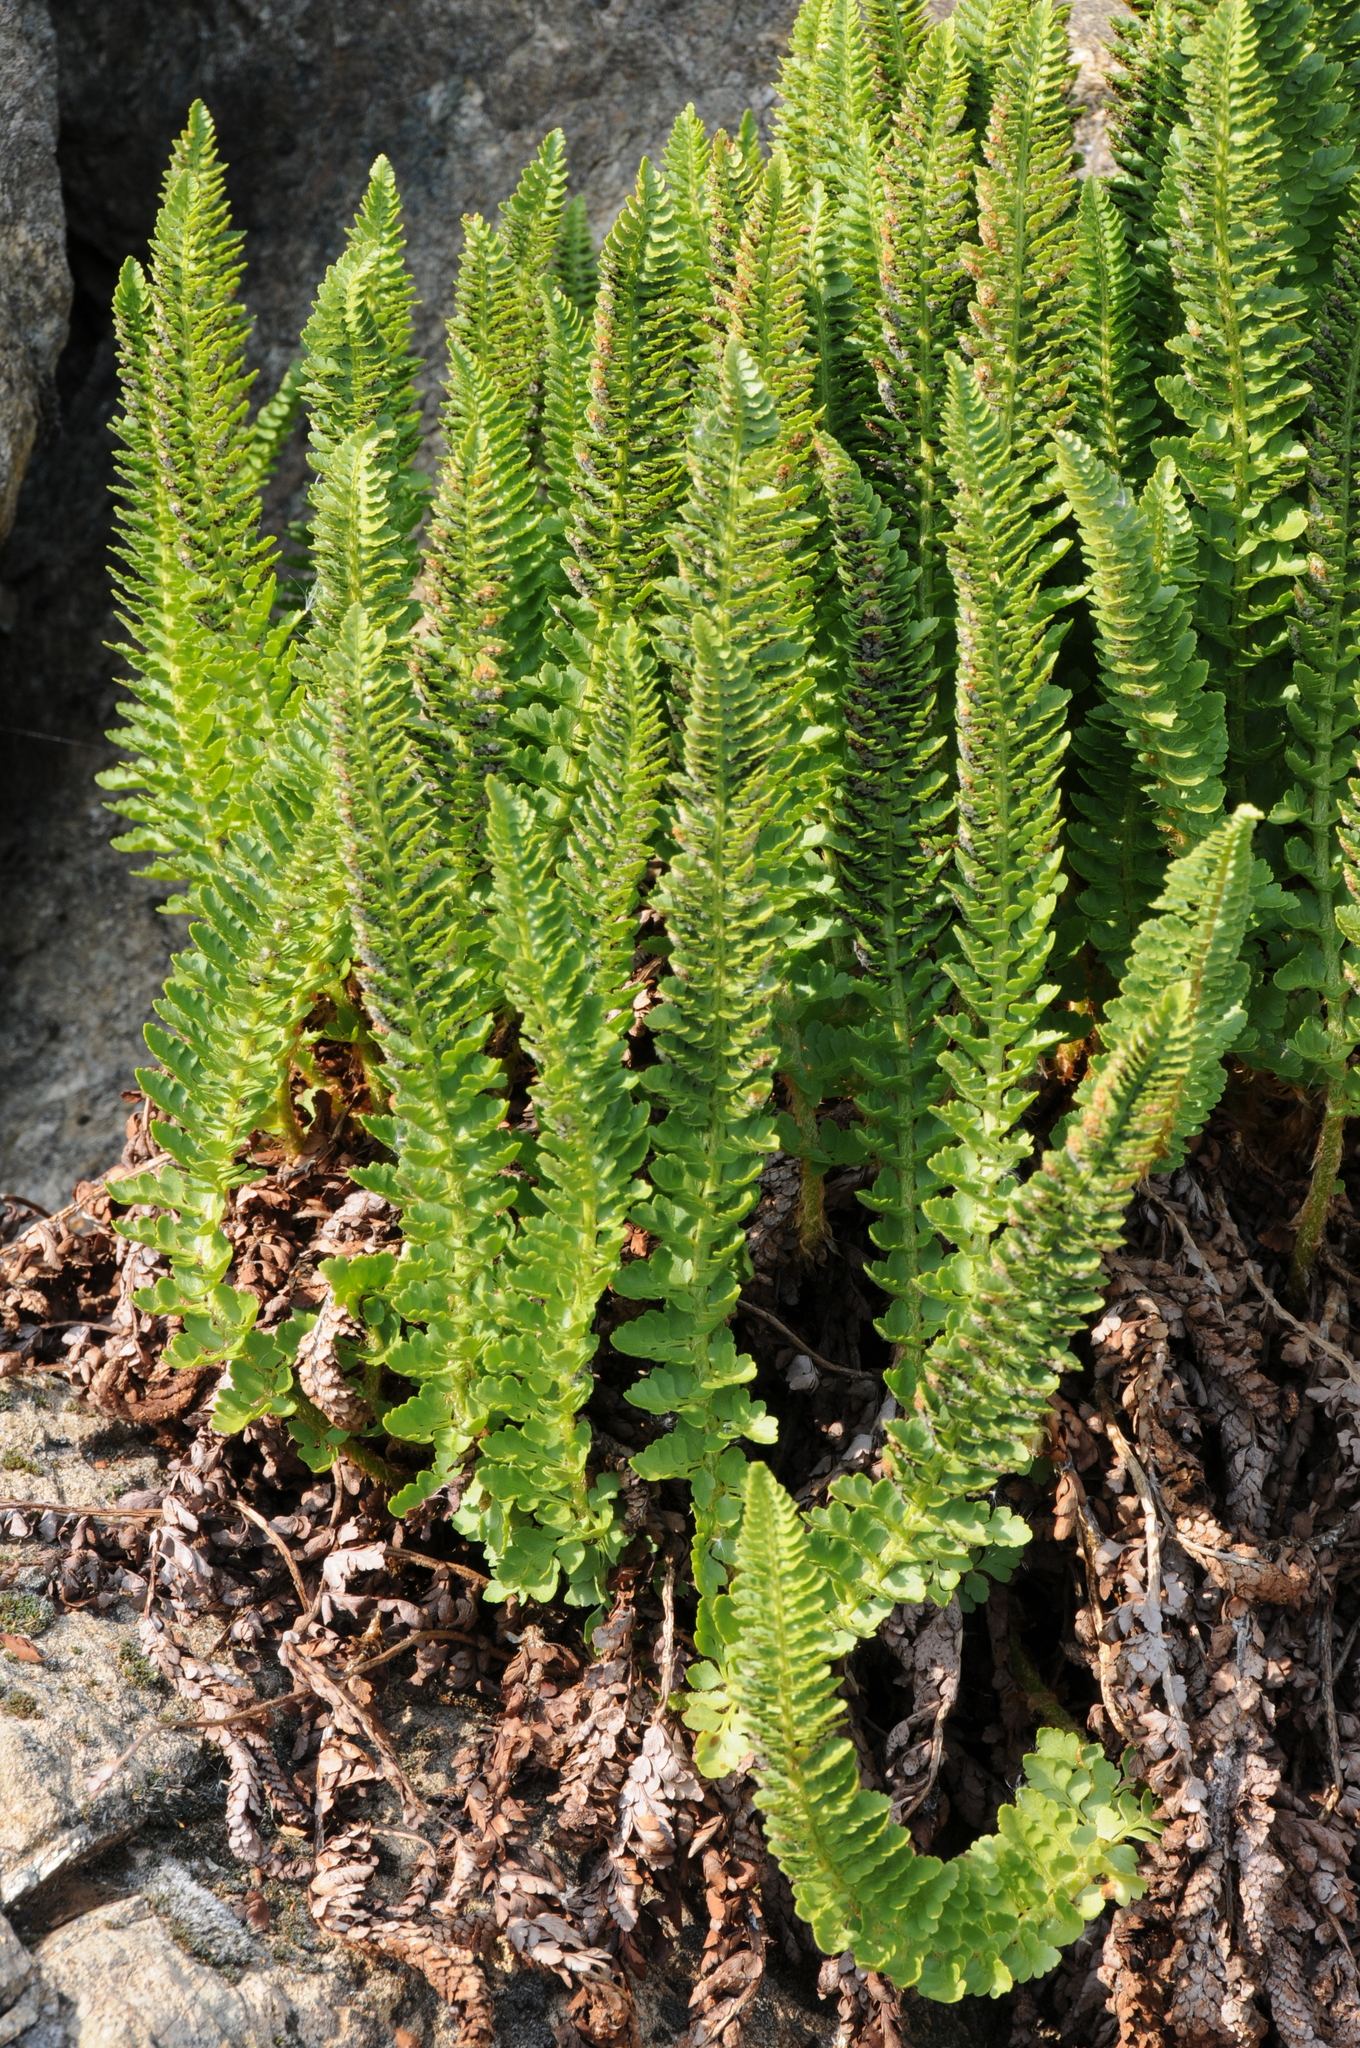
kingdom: Plantae
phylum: Tracheophyta
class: Polypodiopsida
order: Polypodiales
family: Dryopteridaceae
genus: Polystichum
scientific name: Polystichum lemmonii
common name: Lemmon's holly fern
